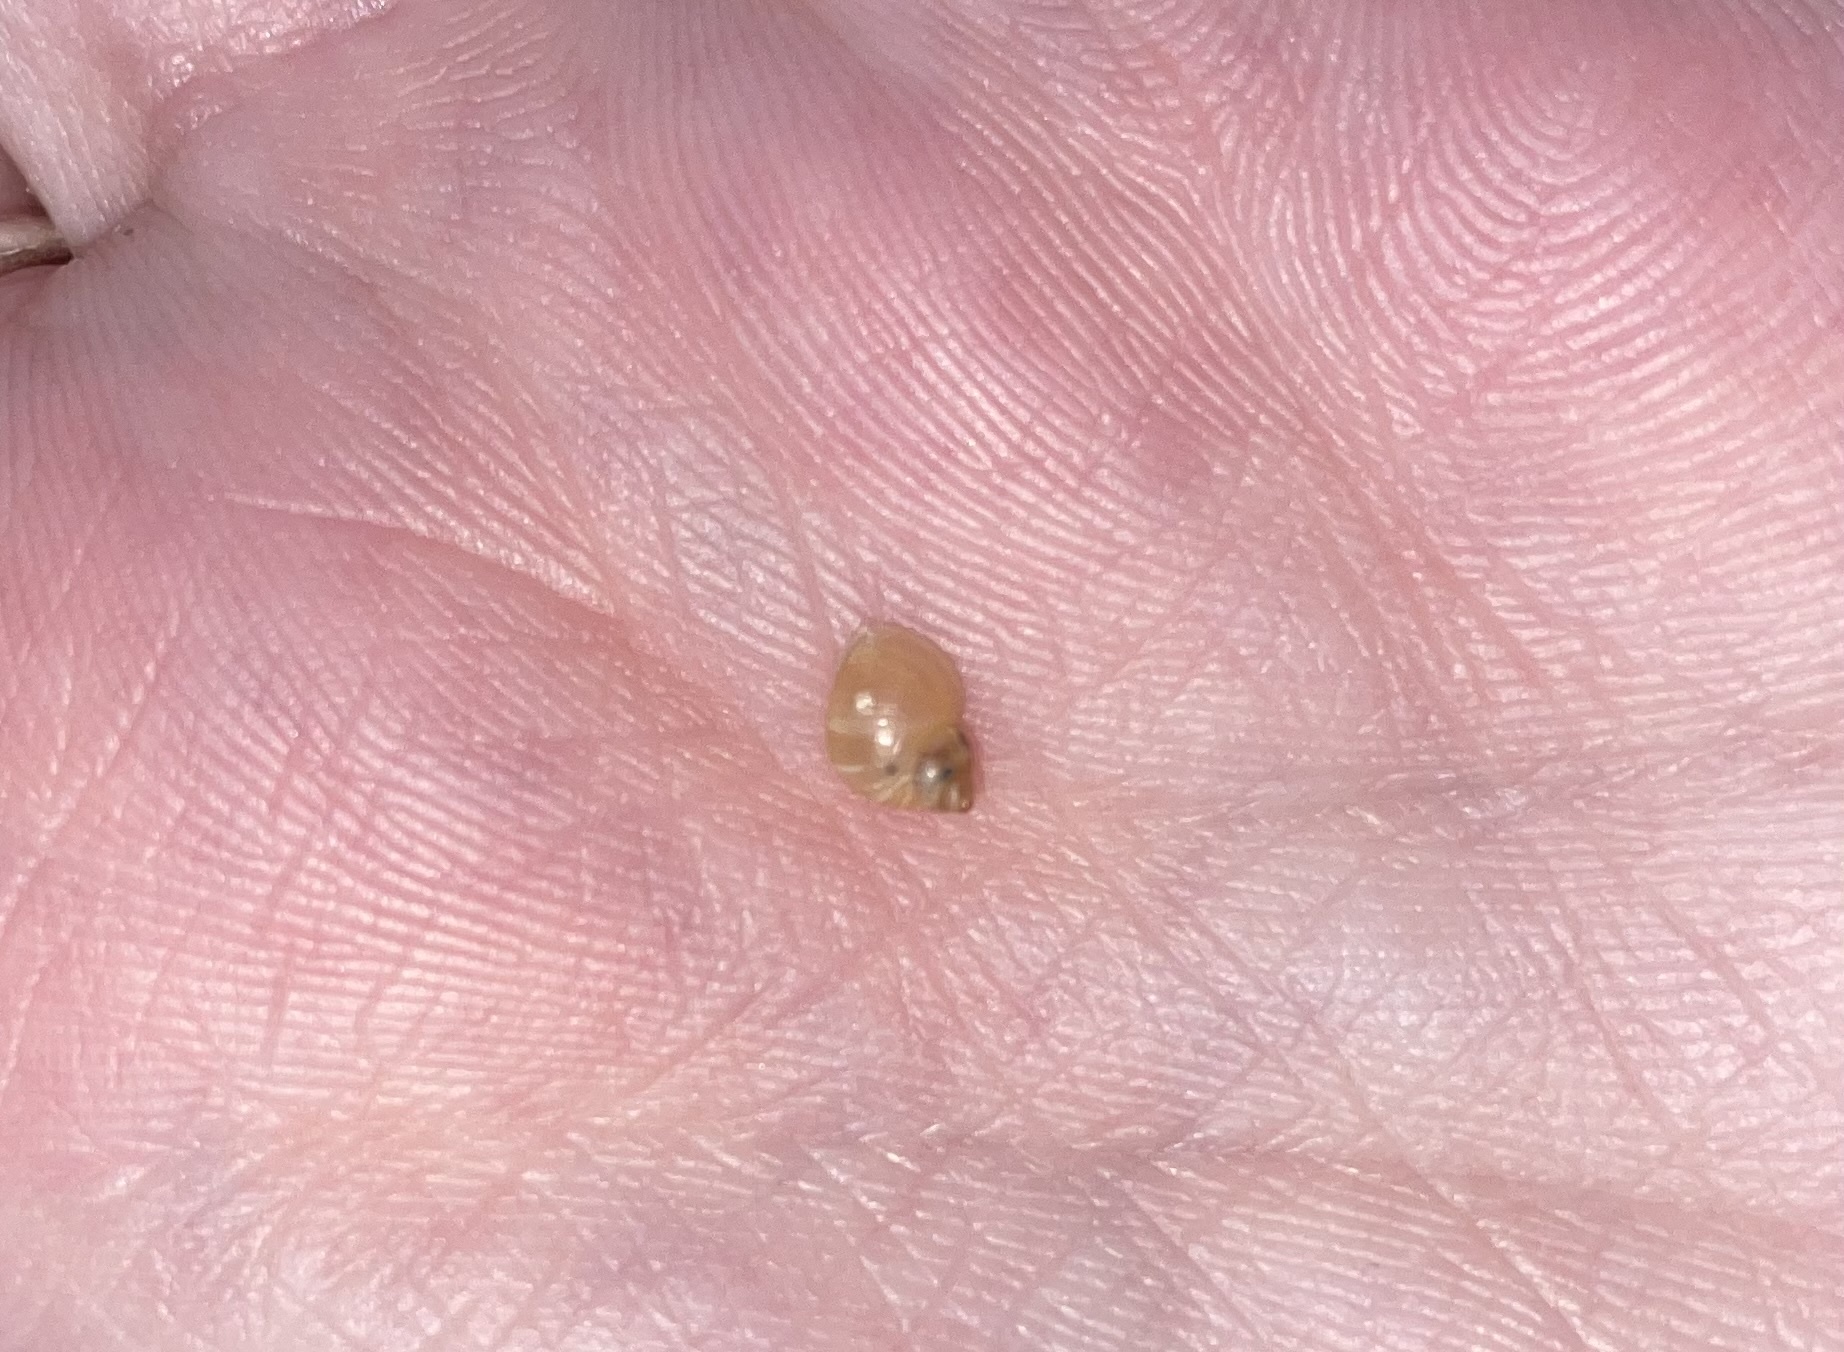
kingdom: Animalia
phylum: Mollusca
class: Gastropoda
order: Littorinimorpha
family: Littorinidae
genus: Lacuna
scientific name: Lacuna vincta
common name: Banded chink shell
